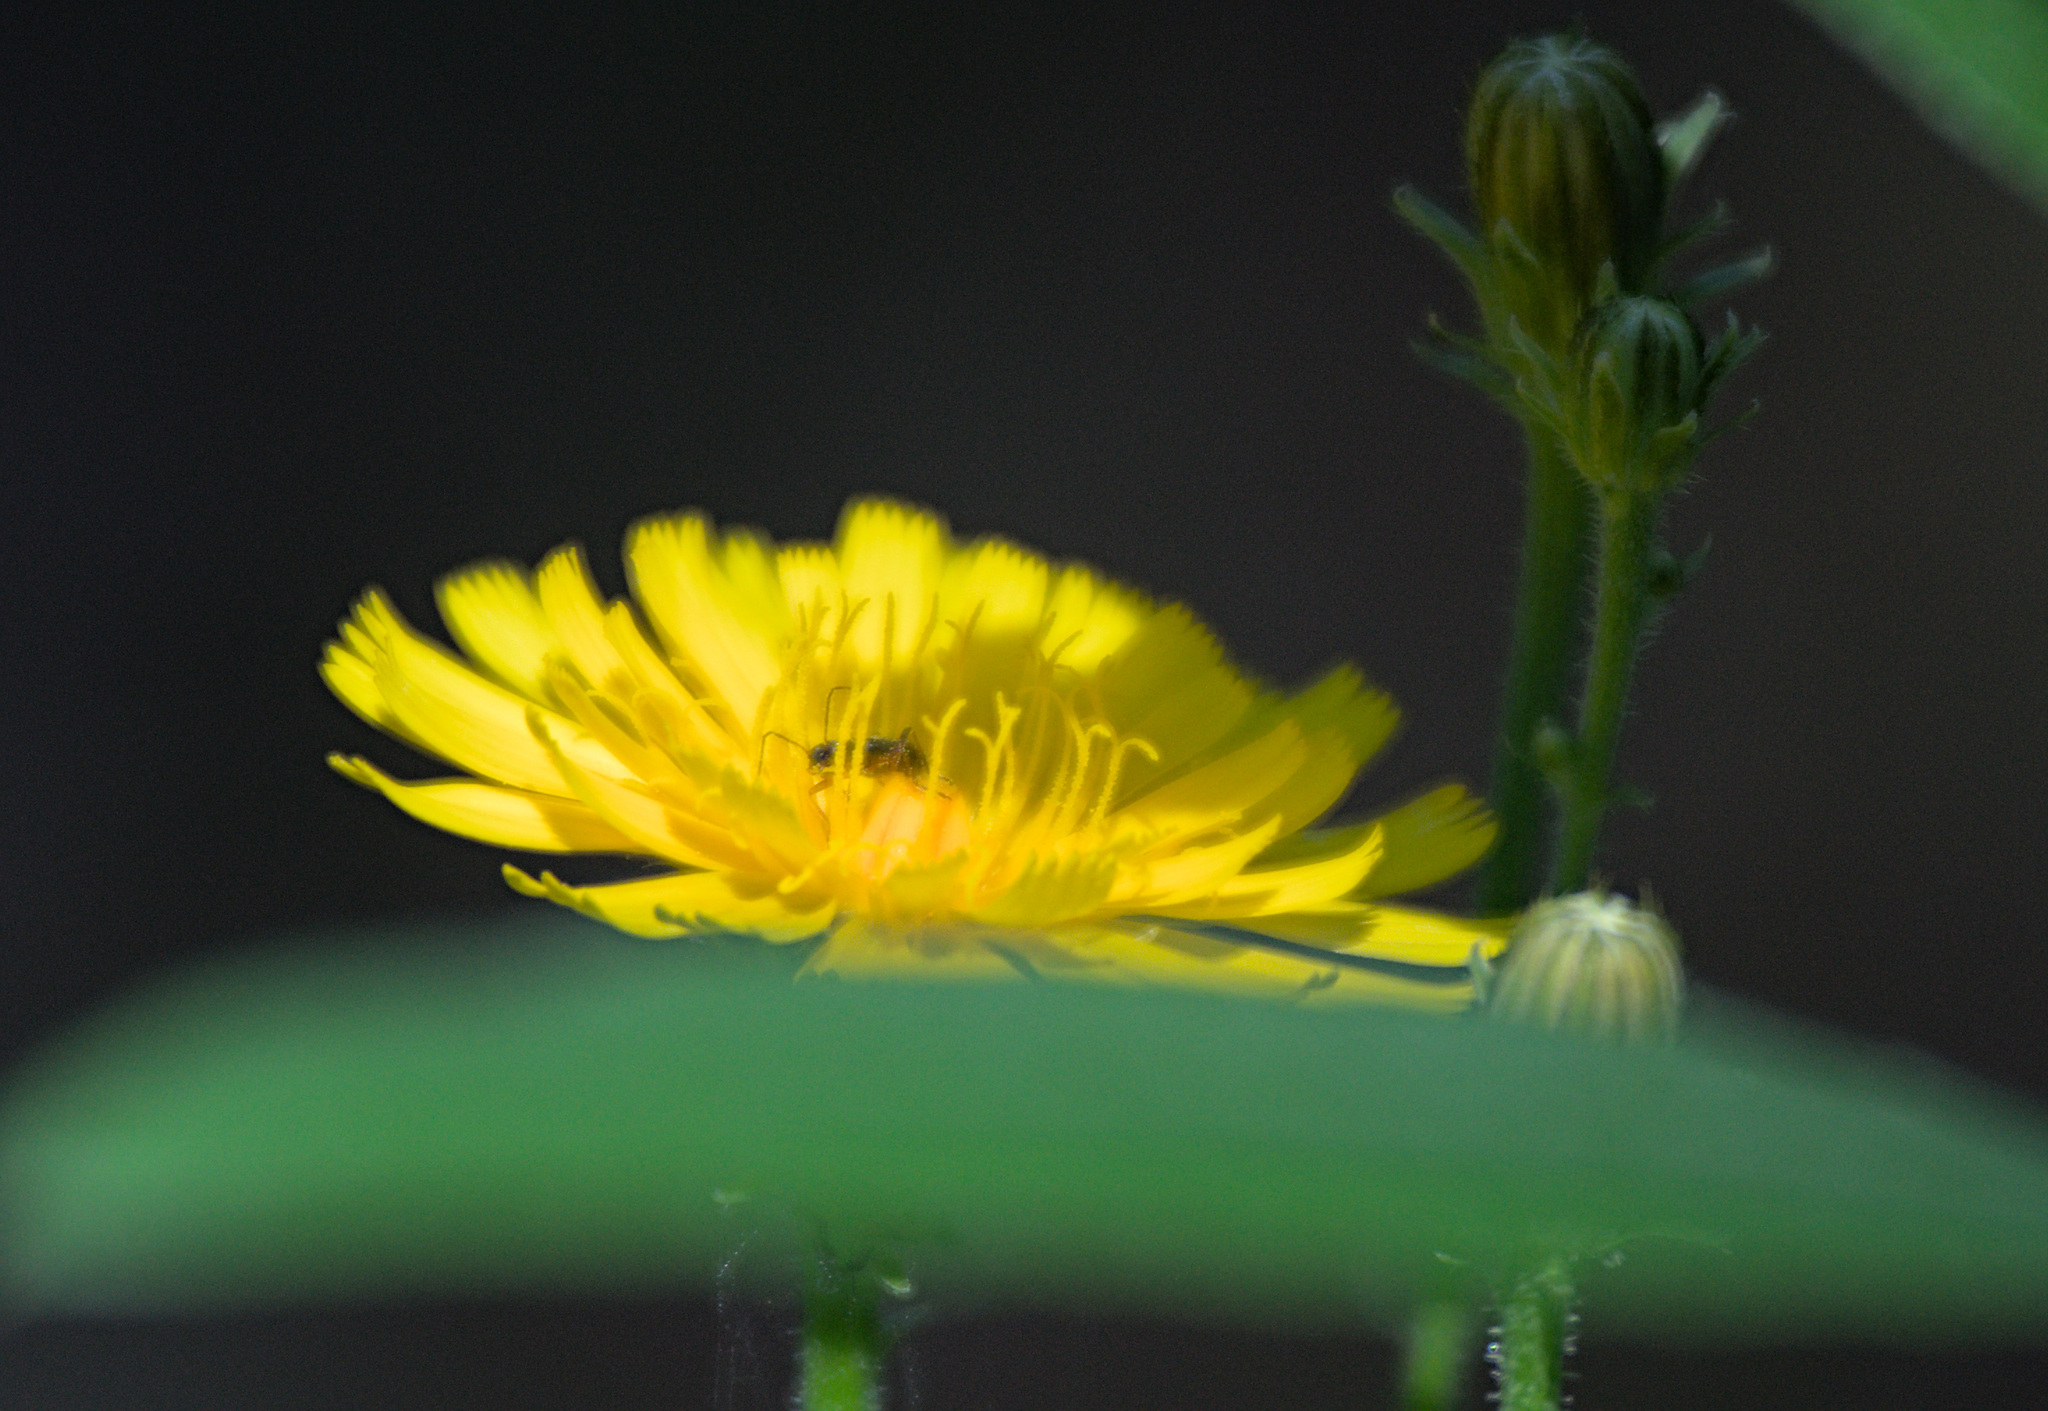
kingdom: Plantae
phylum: Tracheophyta
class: Magnoliopsida
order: Asterales
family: Asteraceae
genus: Picris
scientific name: Picris hieracioides
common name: Hawkweed oxtongue
